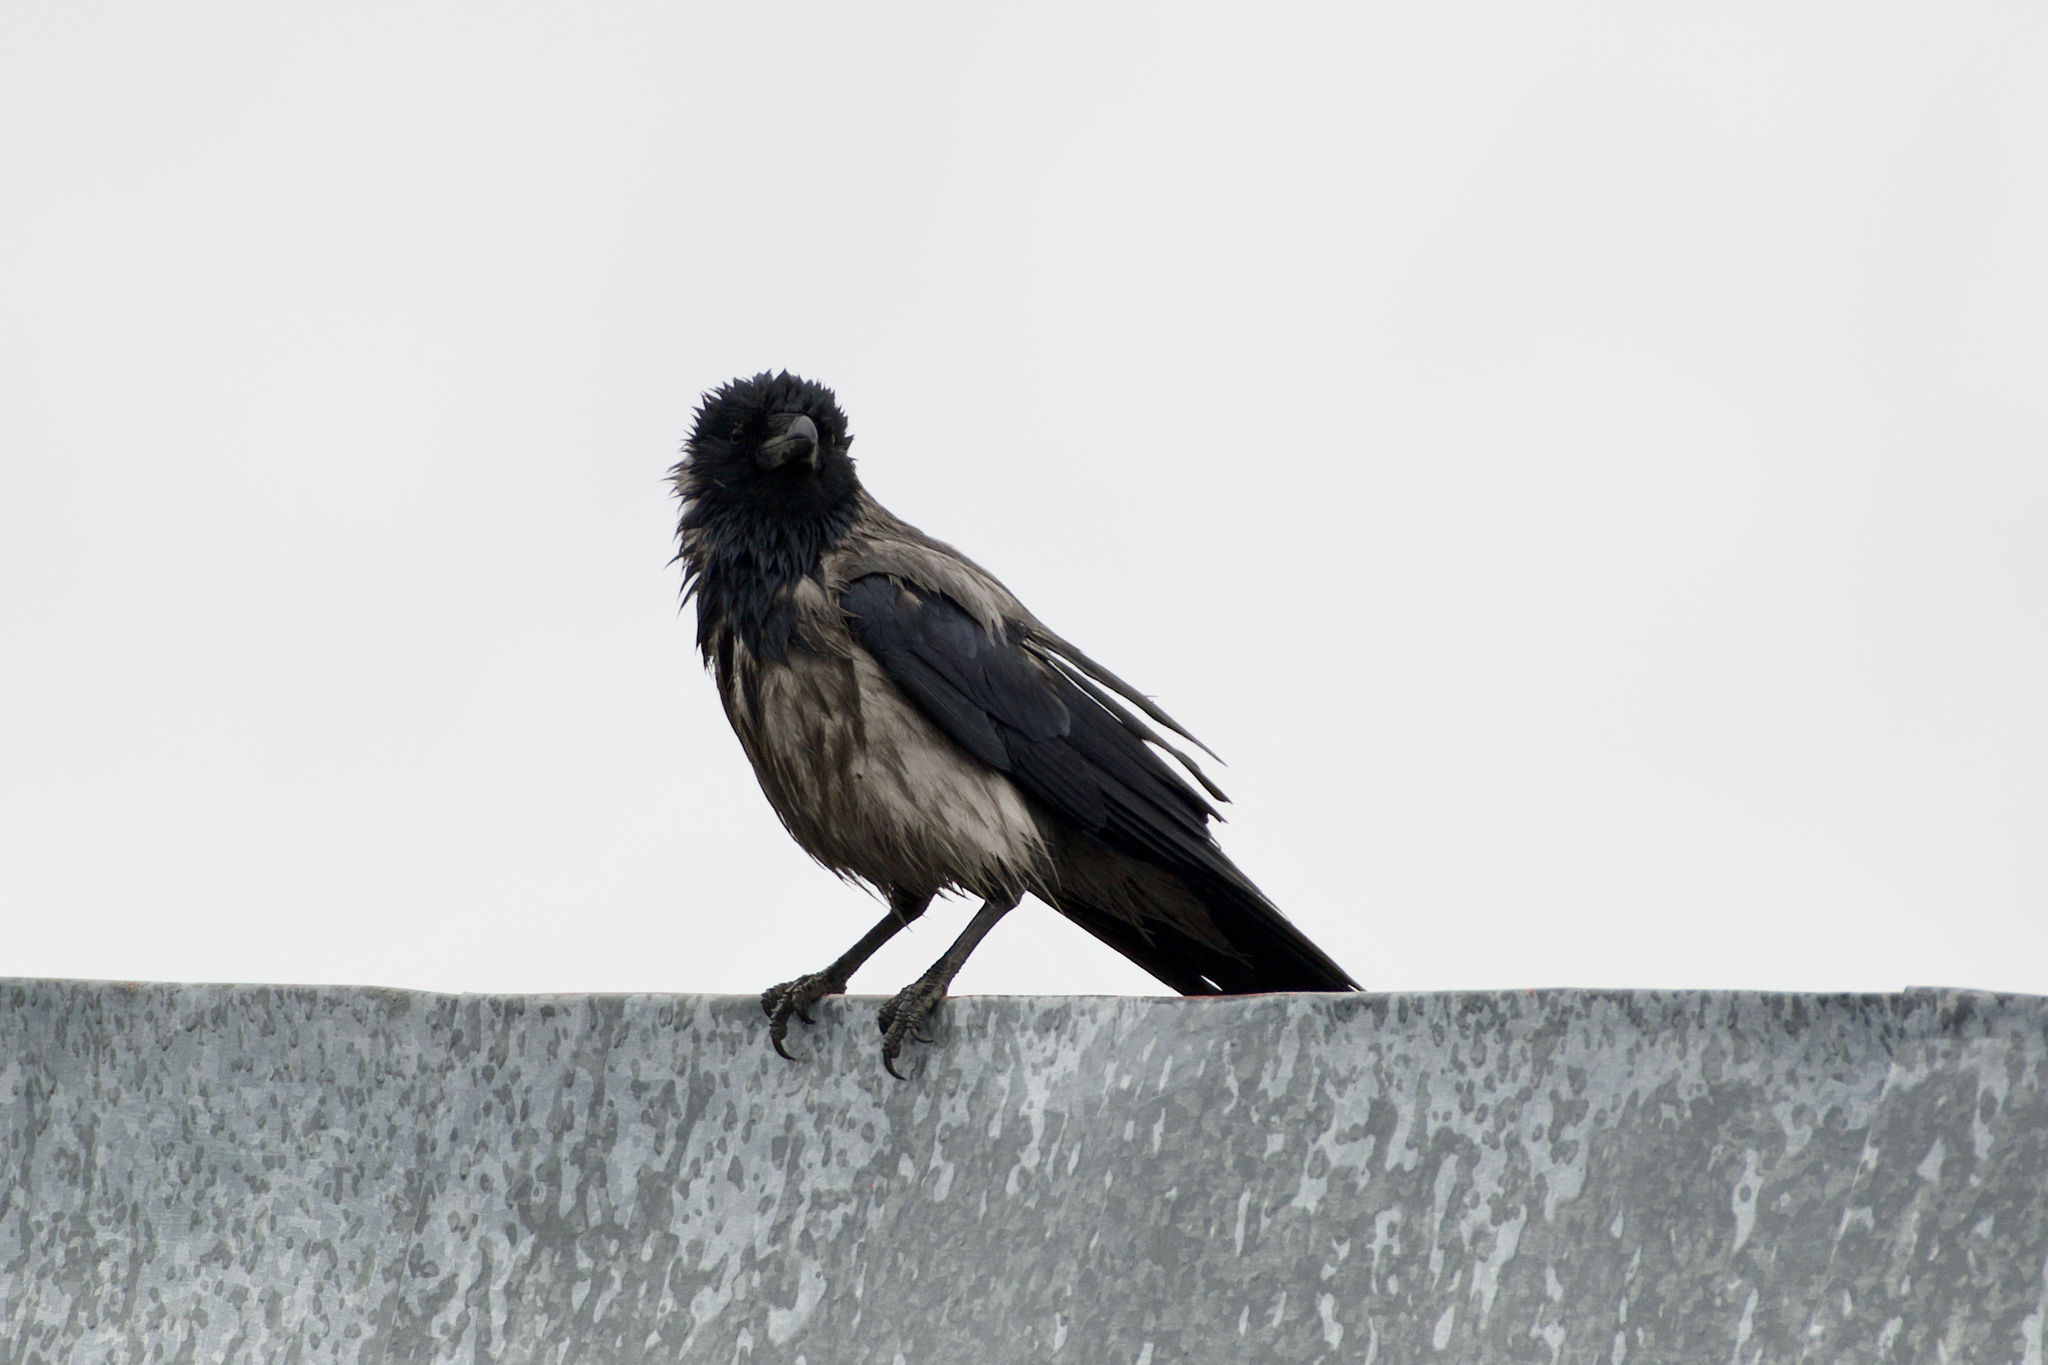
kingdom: Animalia
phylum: Chordata
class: Aves
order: Passeriformes
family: Corvidae
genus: Corvus
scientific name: Corvus cornix
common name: Hooded crow
